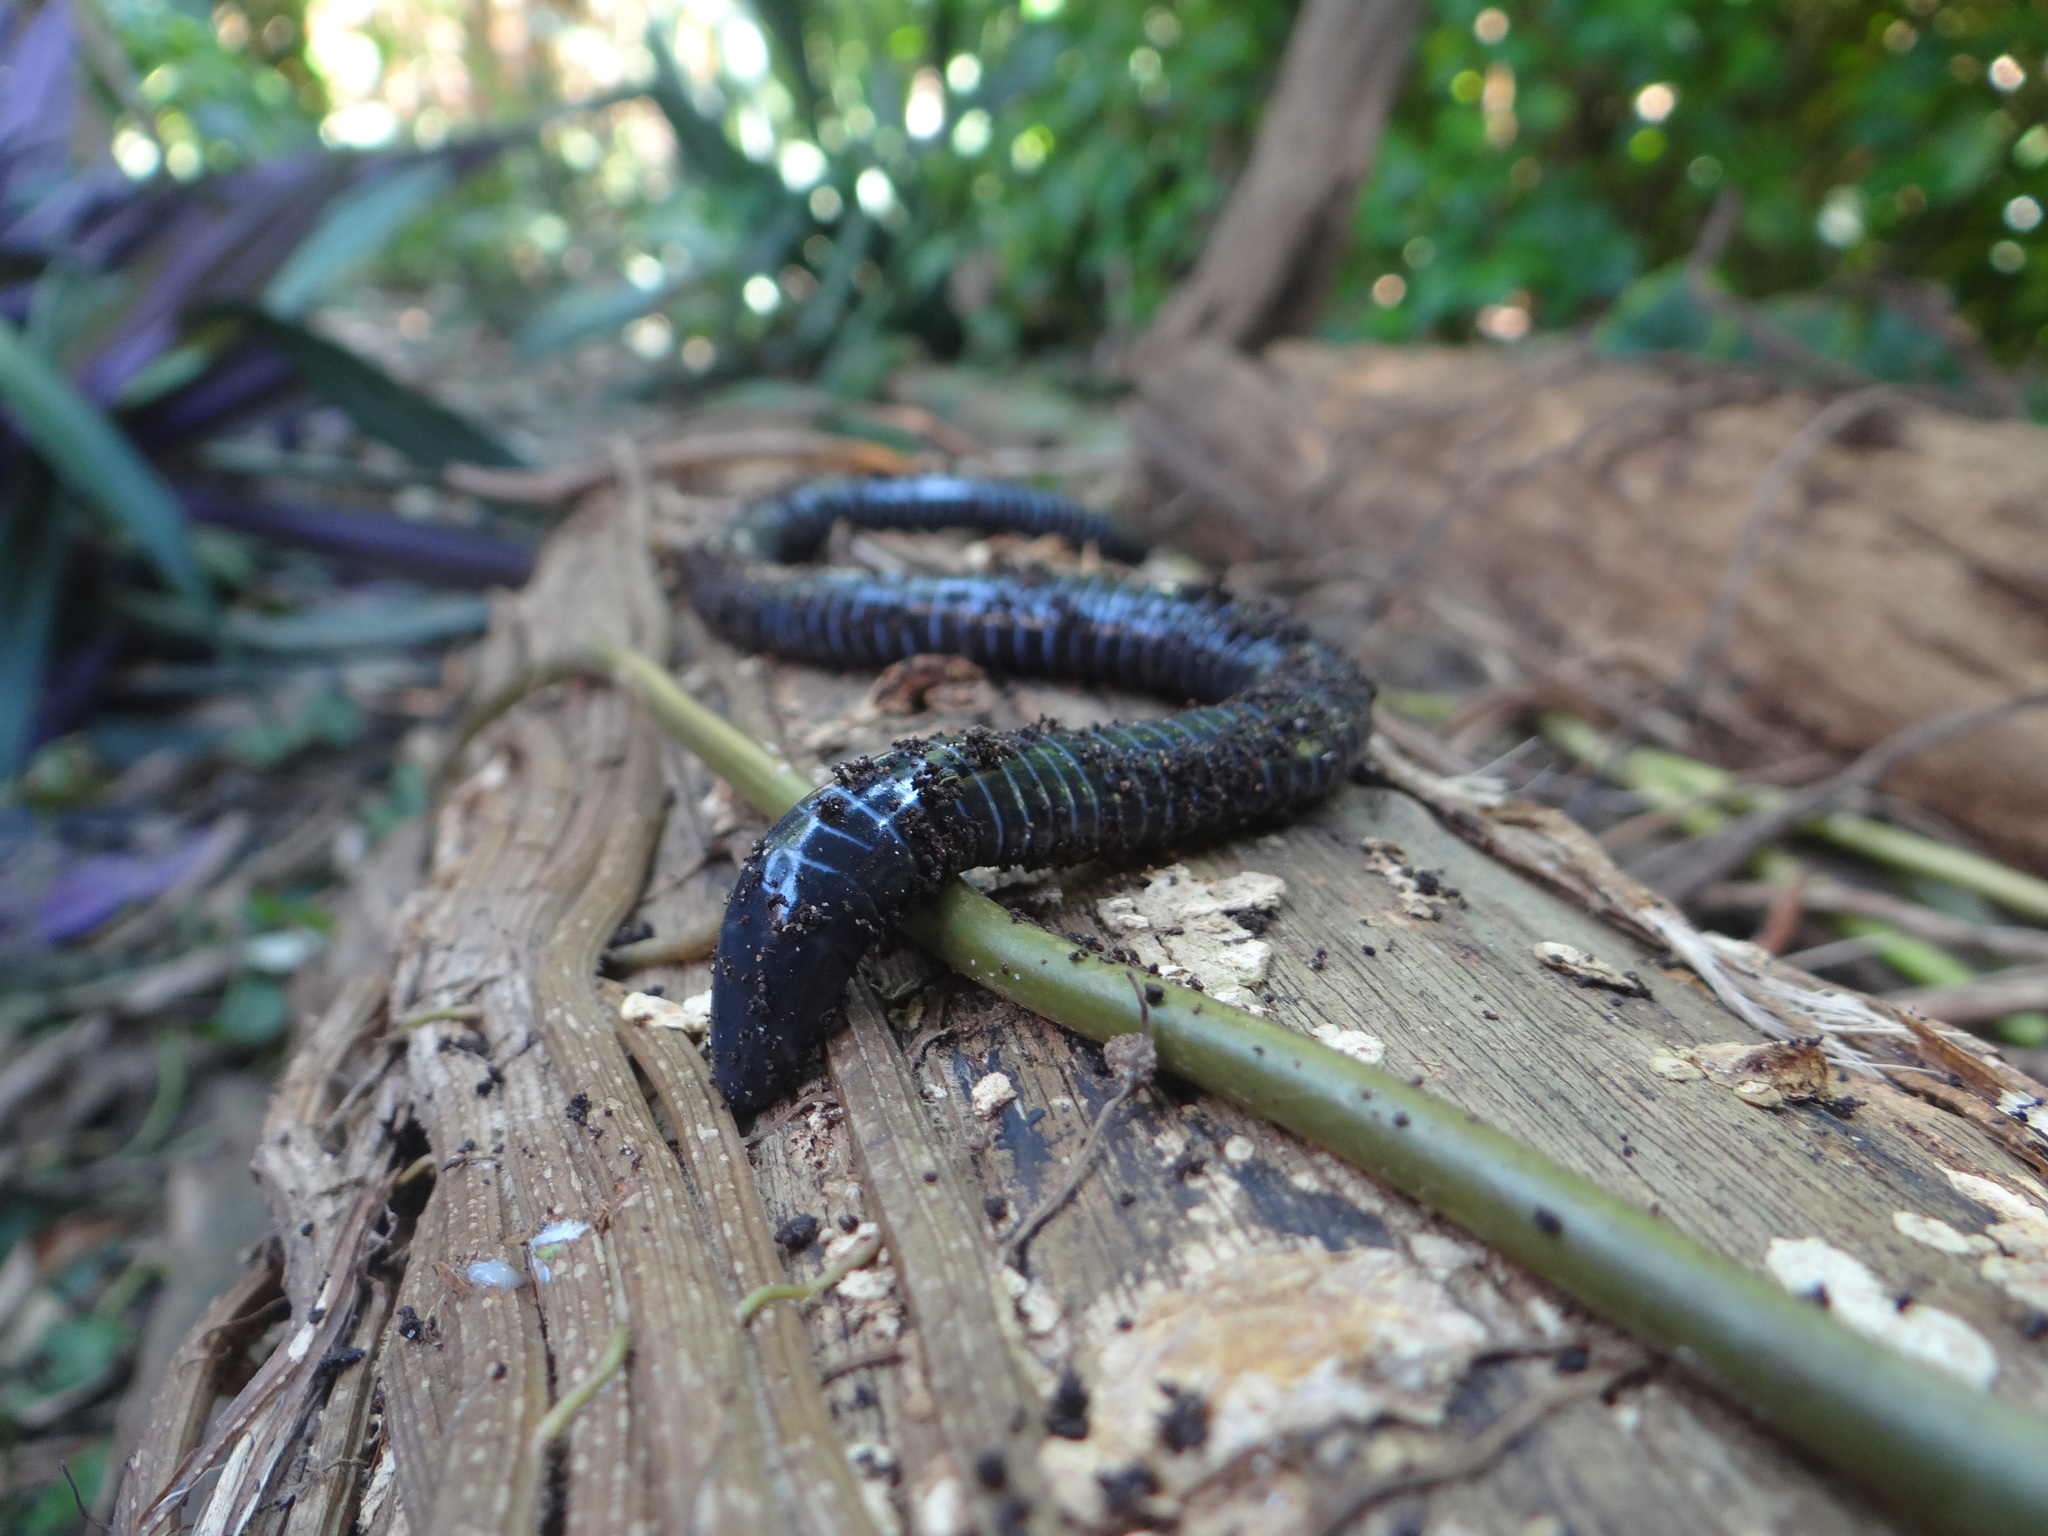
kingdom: Animalia
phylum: Chordata
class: Amphibia
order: Gymnophiona
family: Siphonopidae
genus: Siphonops
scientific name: Siphonops annulatus
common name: Ringed caecilia
